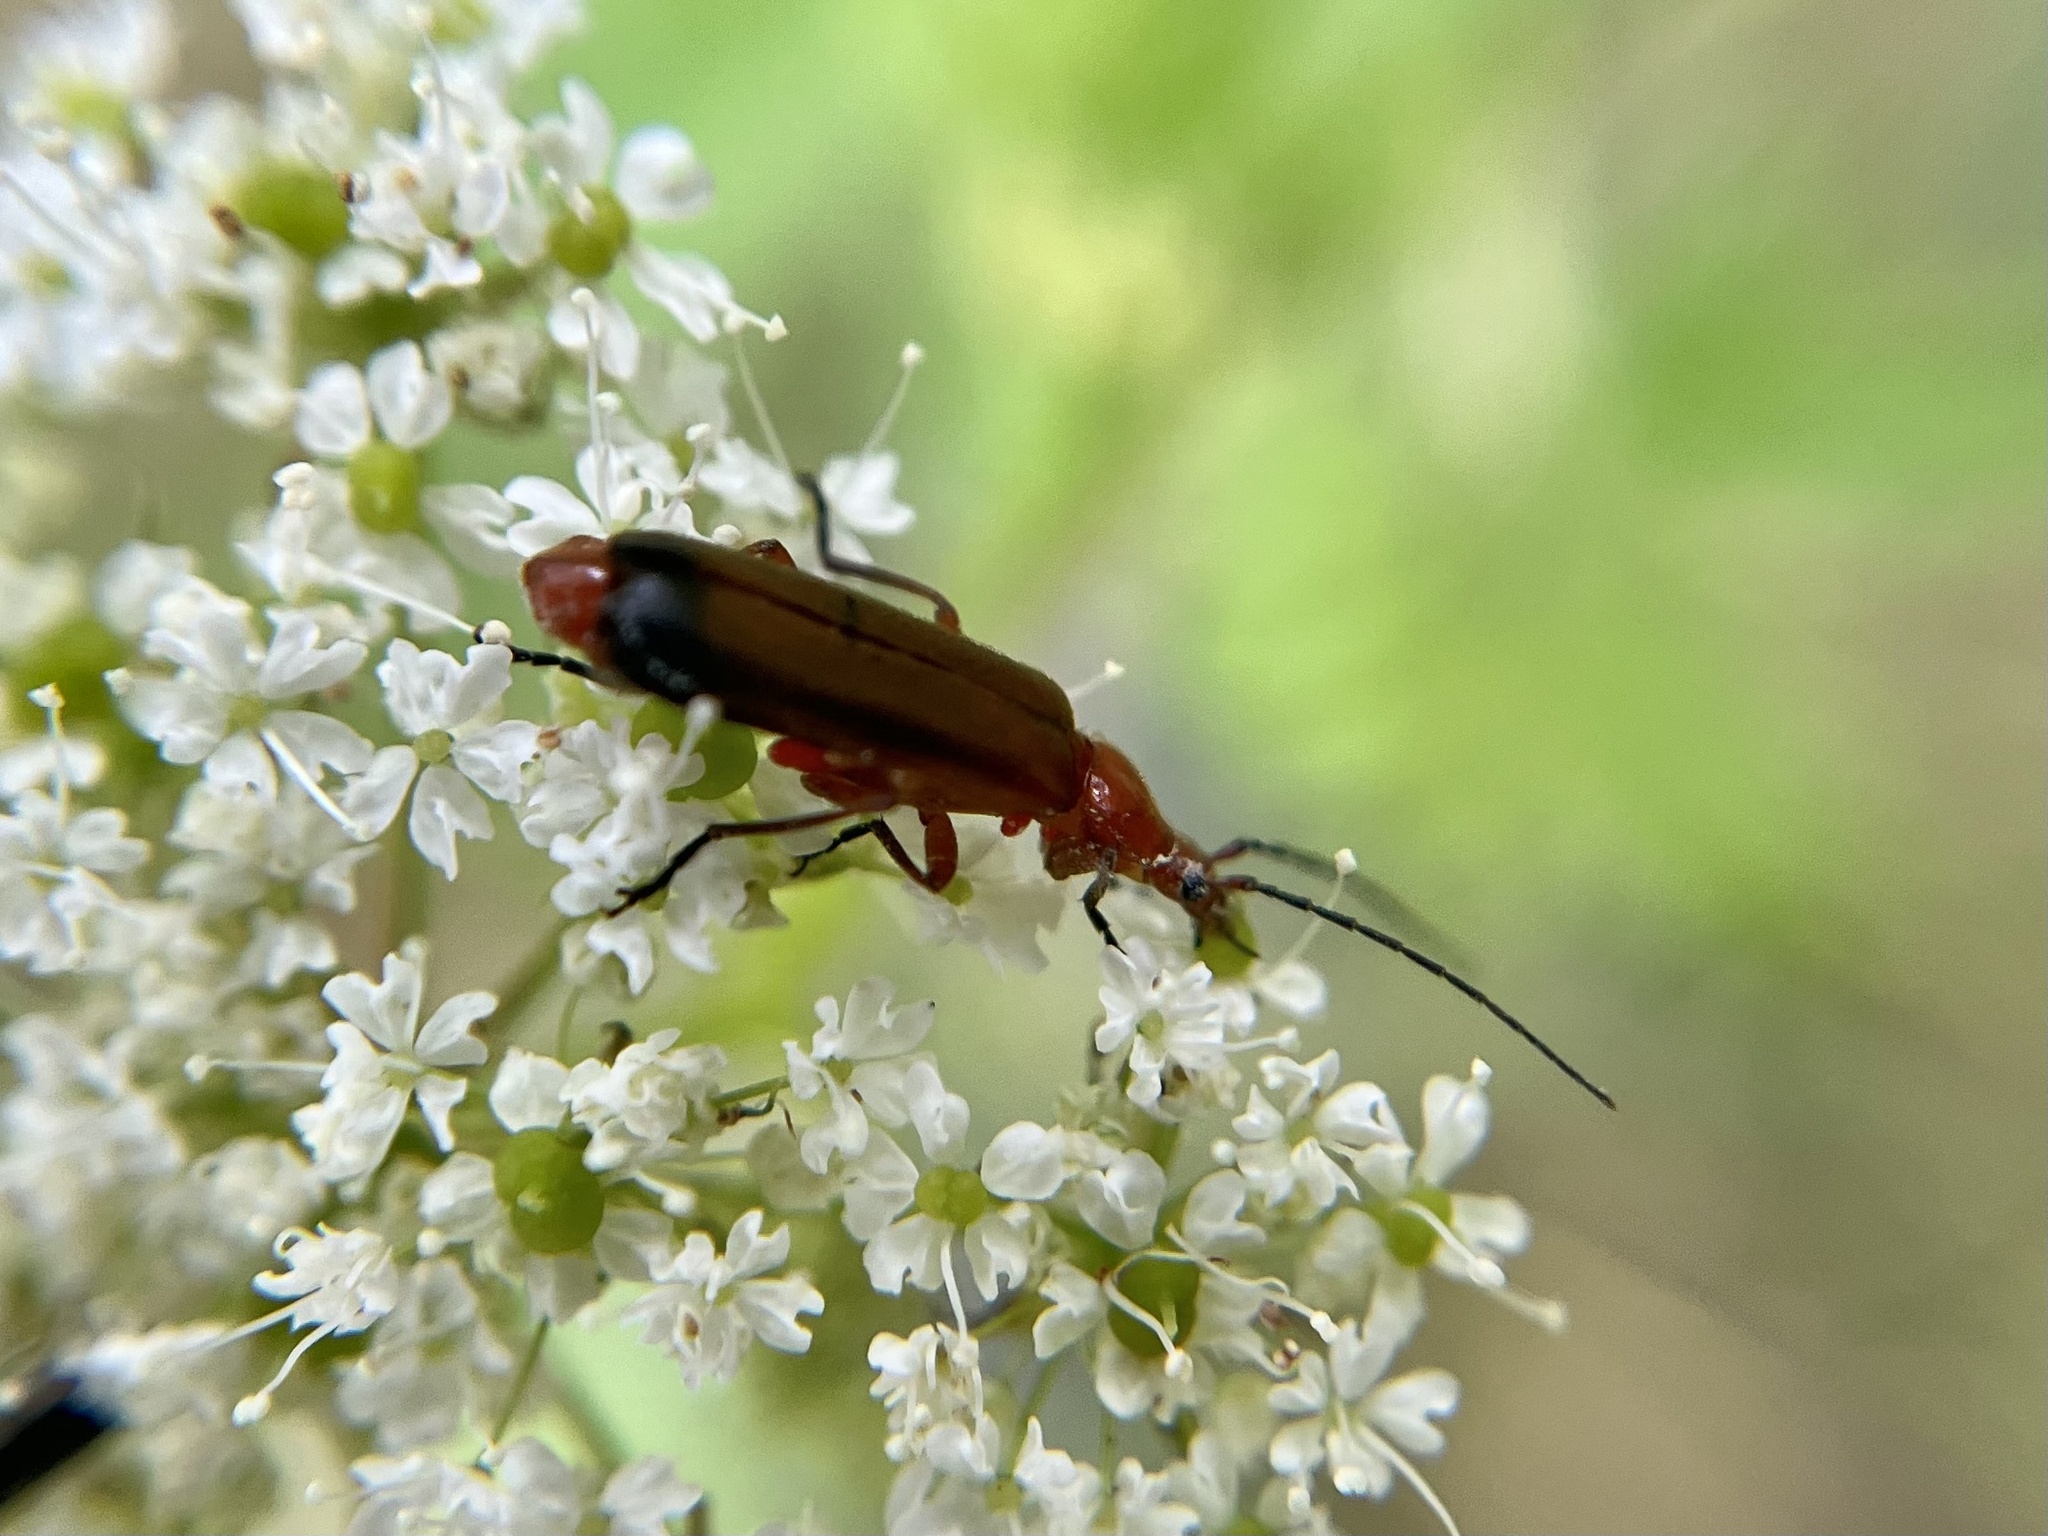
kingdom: Animalia
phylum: Arthropoda
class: Insecta
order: Coleoptera
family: Cantharidae
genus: Rhagonycha
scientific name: Rhagonycha fulva
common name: Common red soldier beetle
